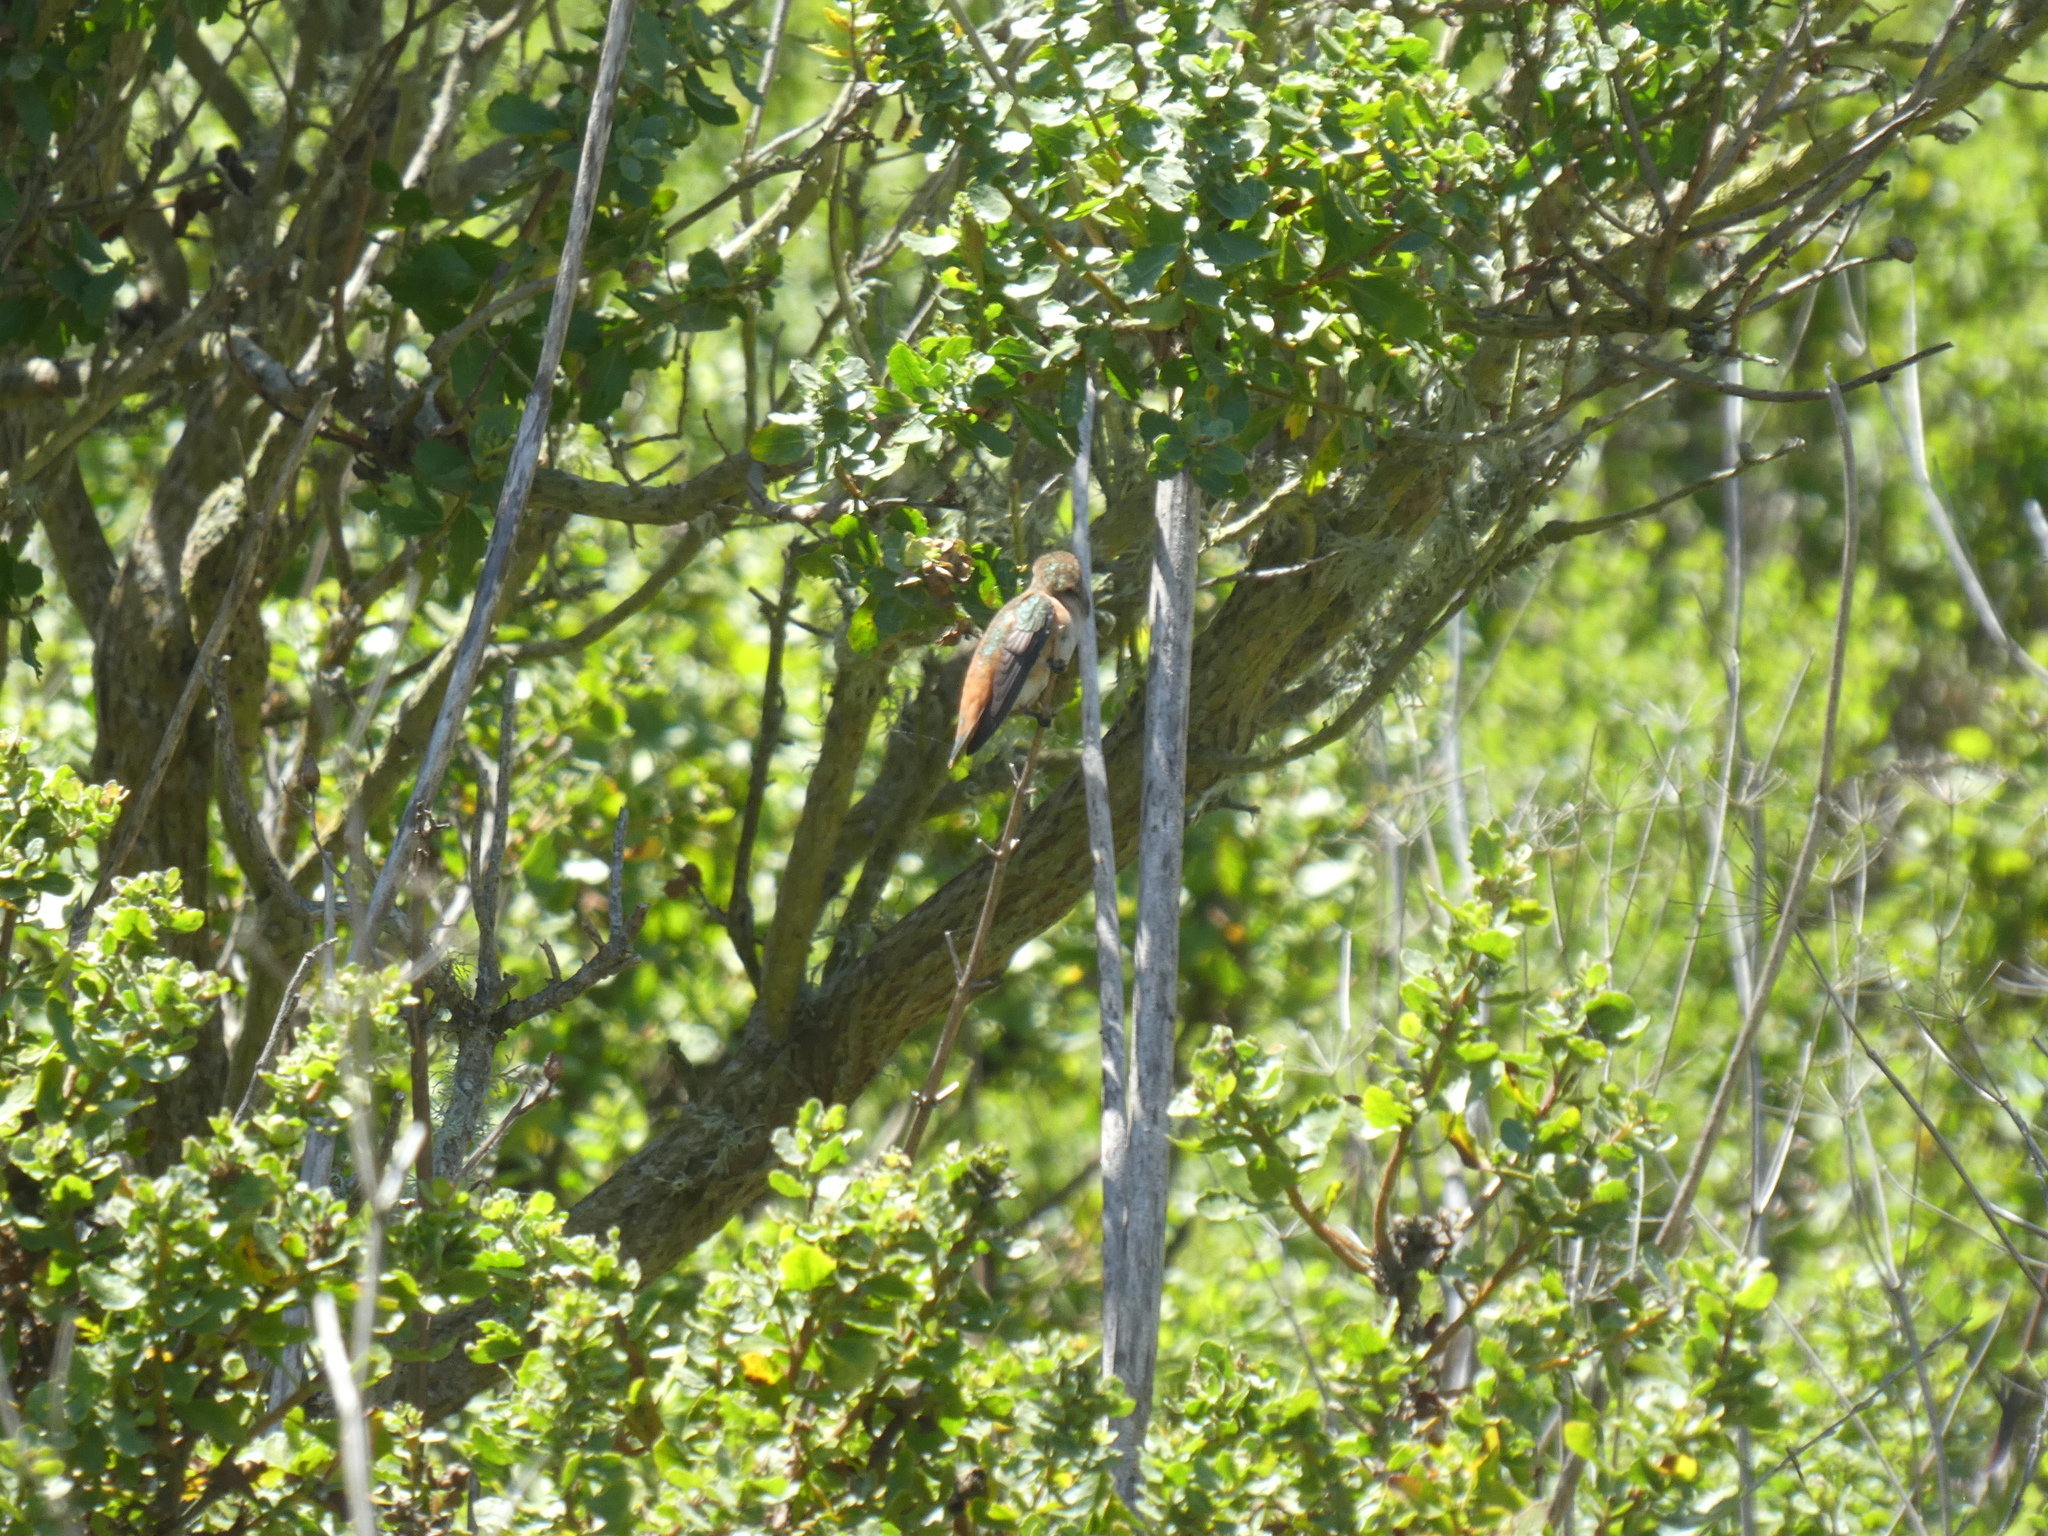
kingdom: Animalia
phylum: Chordata
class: Aves
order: Apodiformes
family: Trochilidae
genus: Selasphorus
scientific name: Selasphorus sasin
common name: Allen's hummingbird
